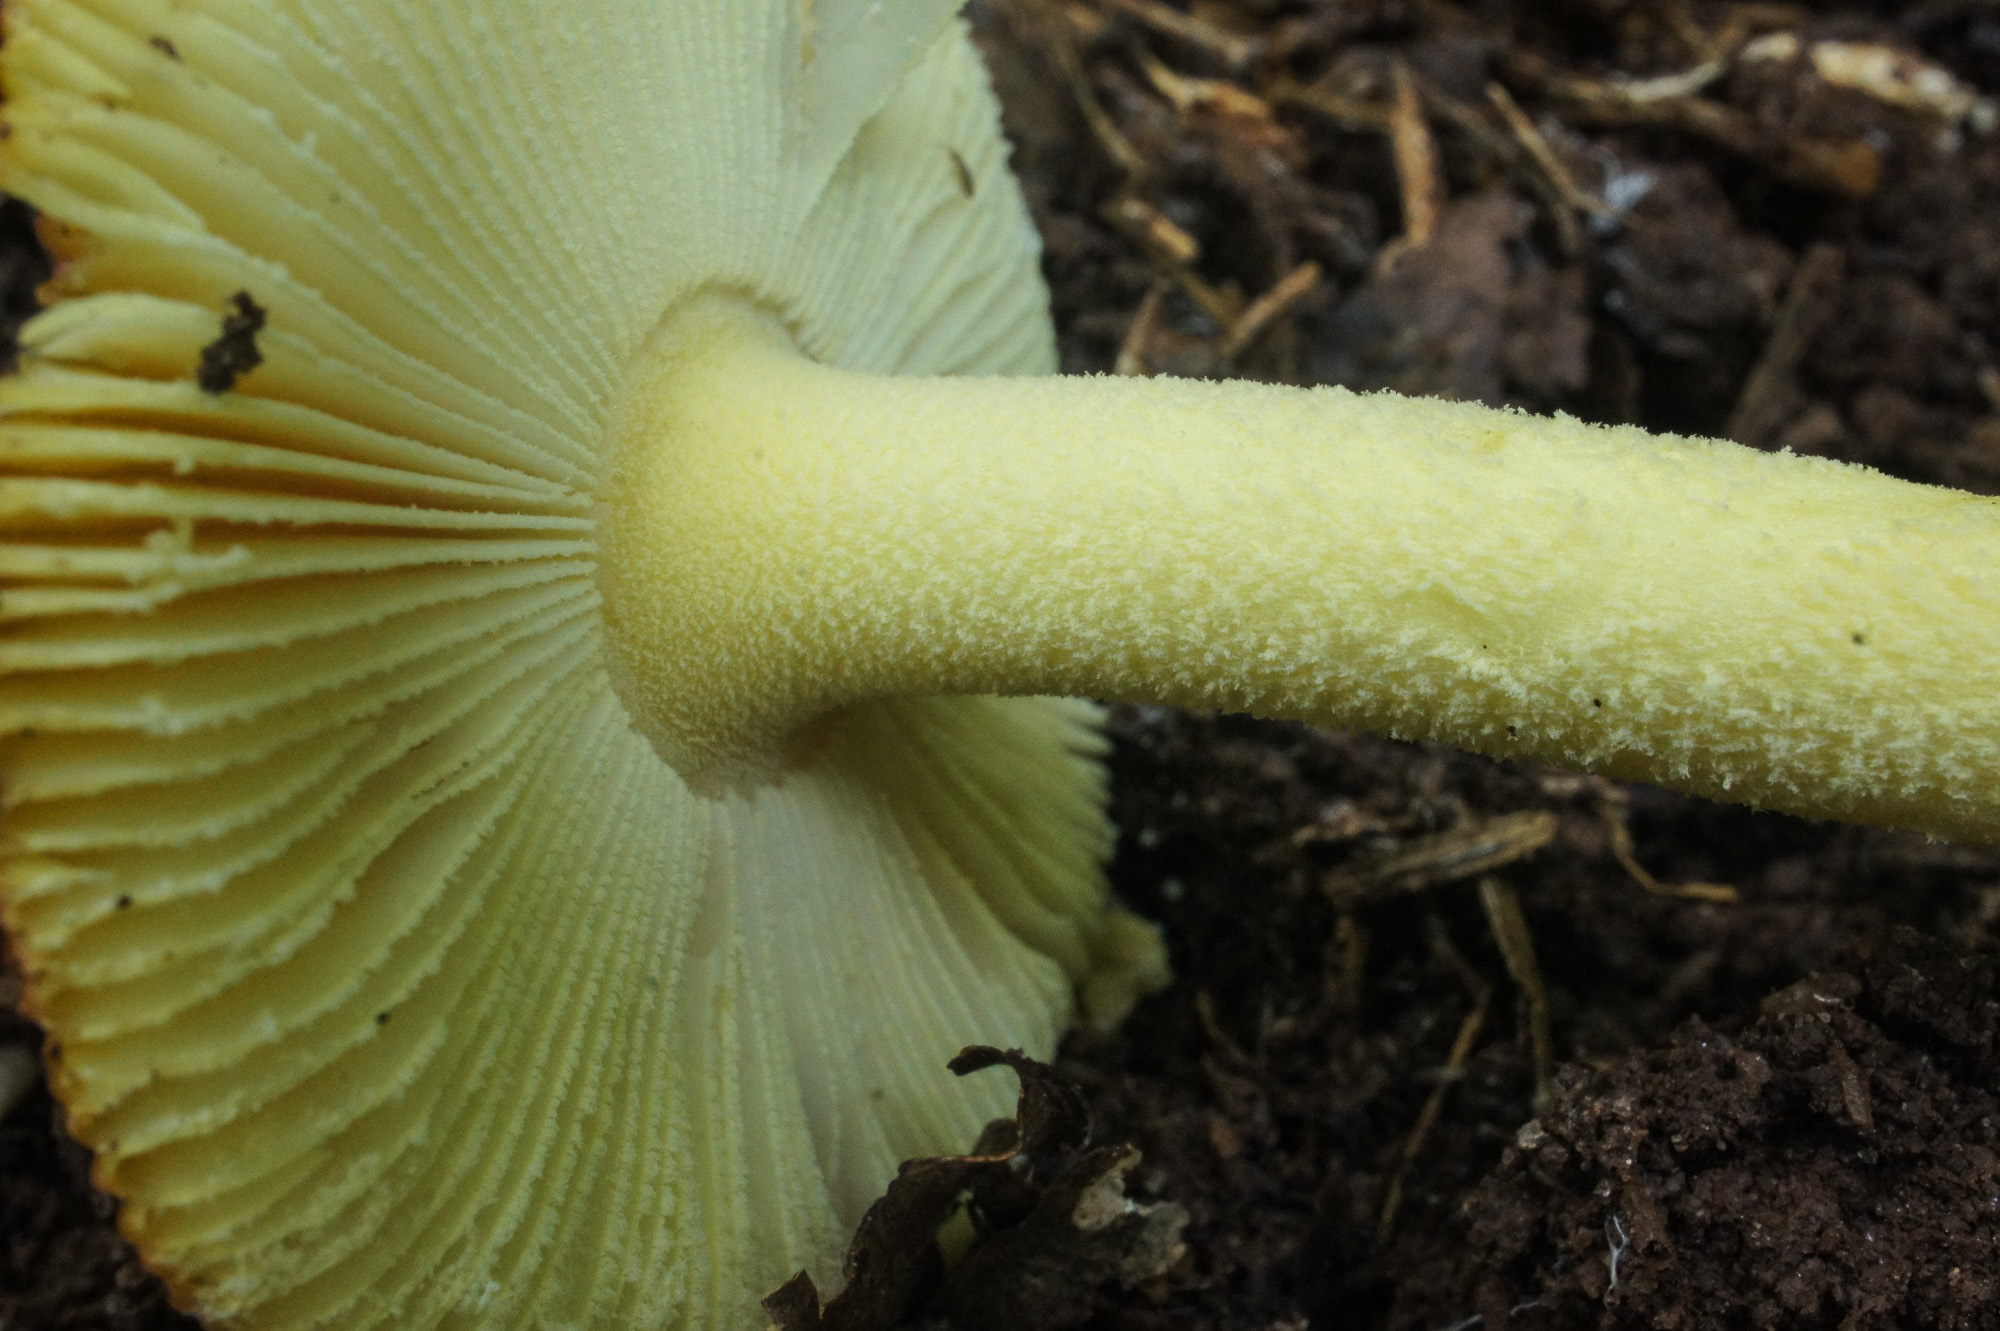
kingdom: Fungi
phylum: Basidiomycota
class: Agaricomycetes
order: Agaricales
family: Amanitaceae
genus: Amanita
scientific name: Amanita parcivolvata
